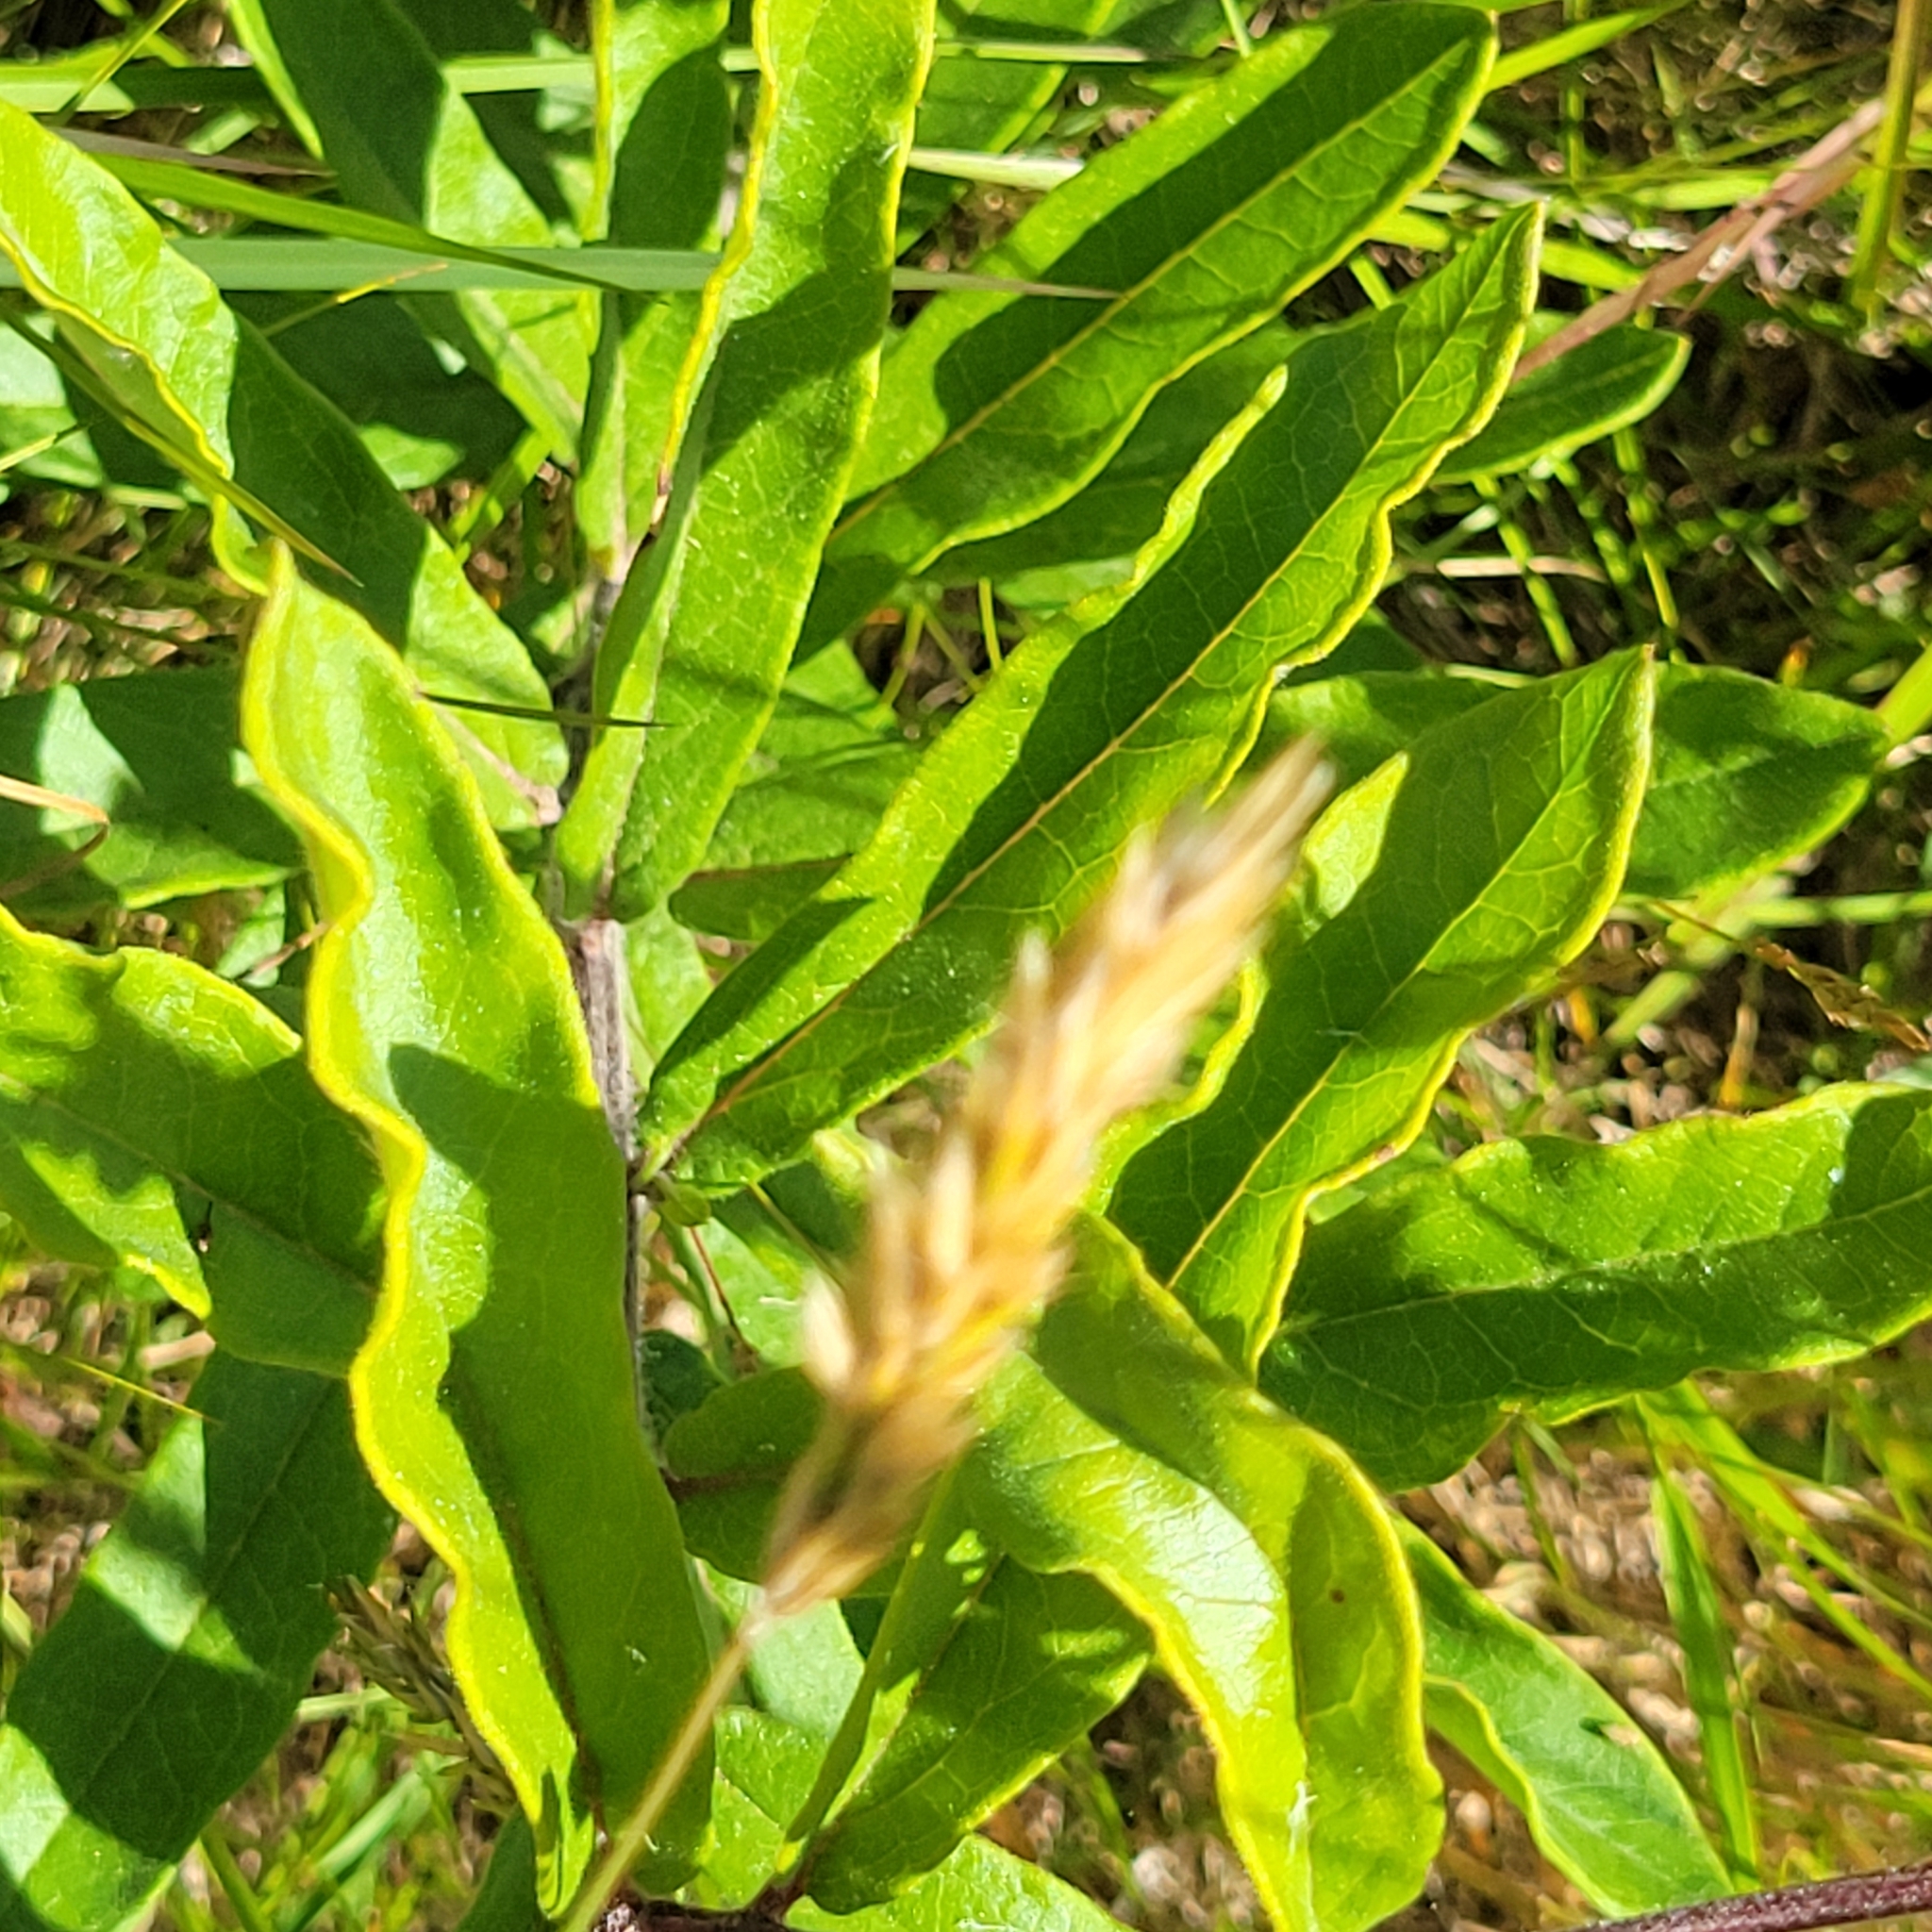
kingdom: Plantae
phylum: Tracheophyta
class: Magnoliopsida
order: Gentianales
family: Apocynaceae
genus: Asclepias
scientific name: Asclepias tuberosa
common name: Butterfly milkweed
